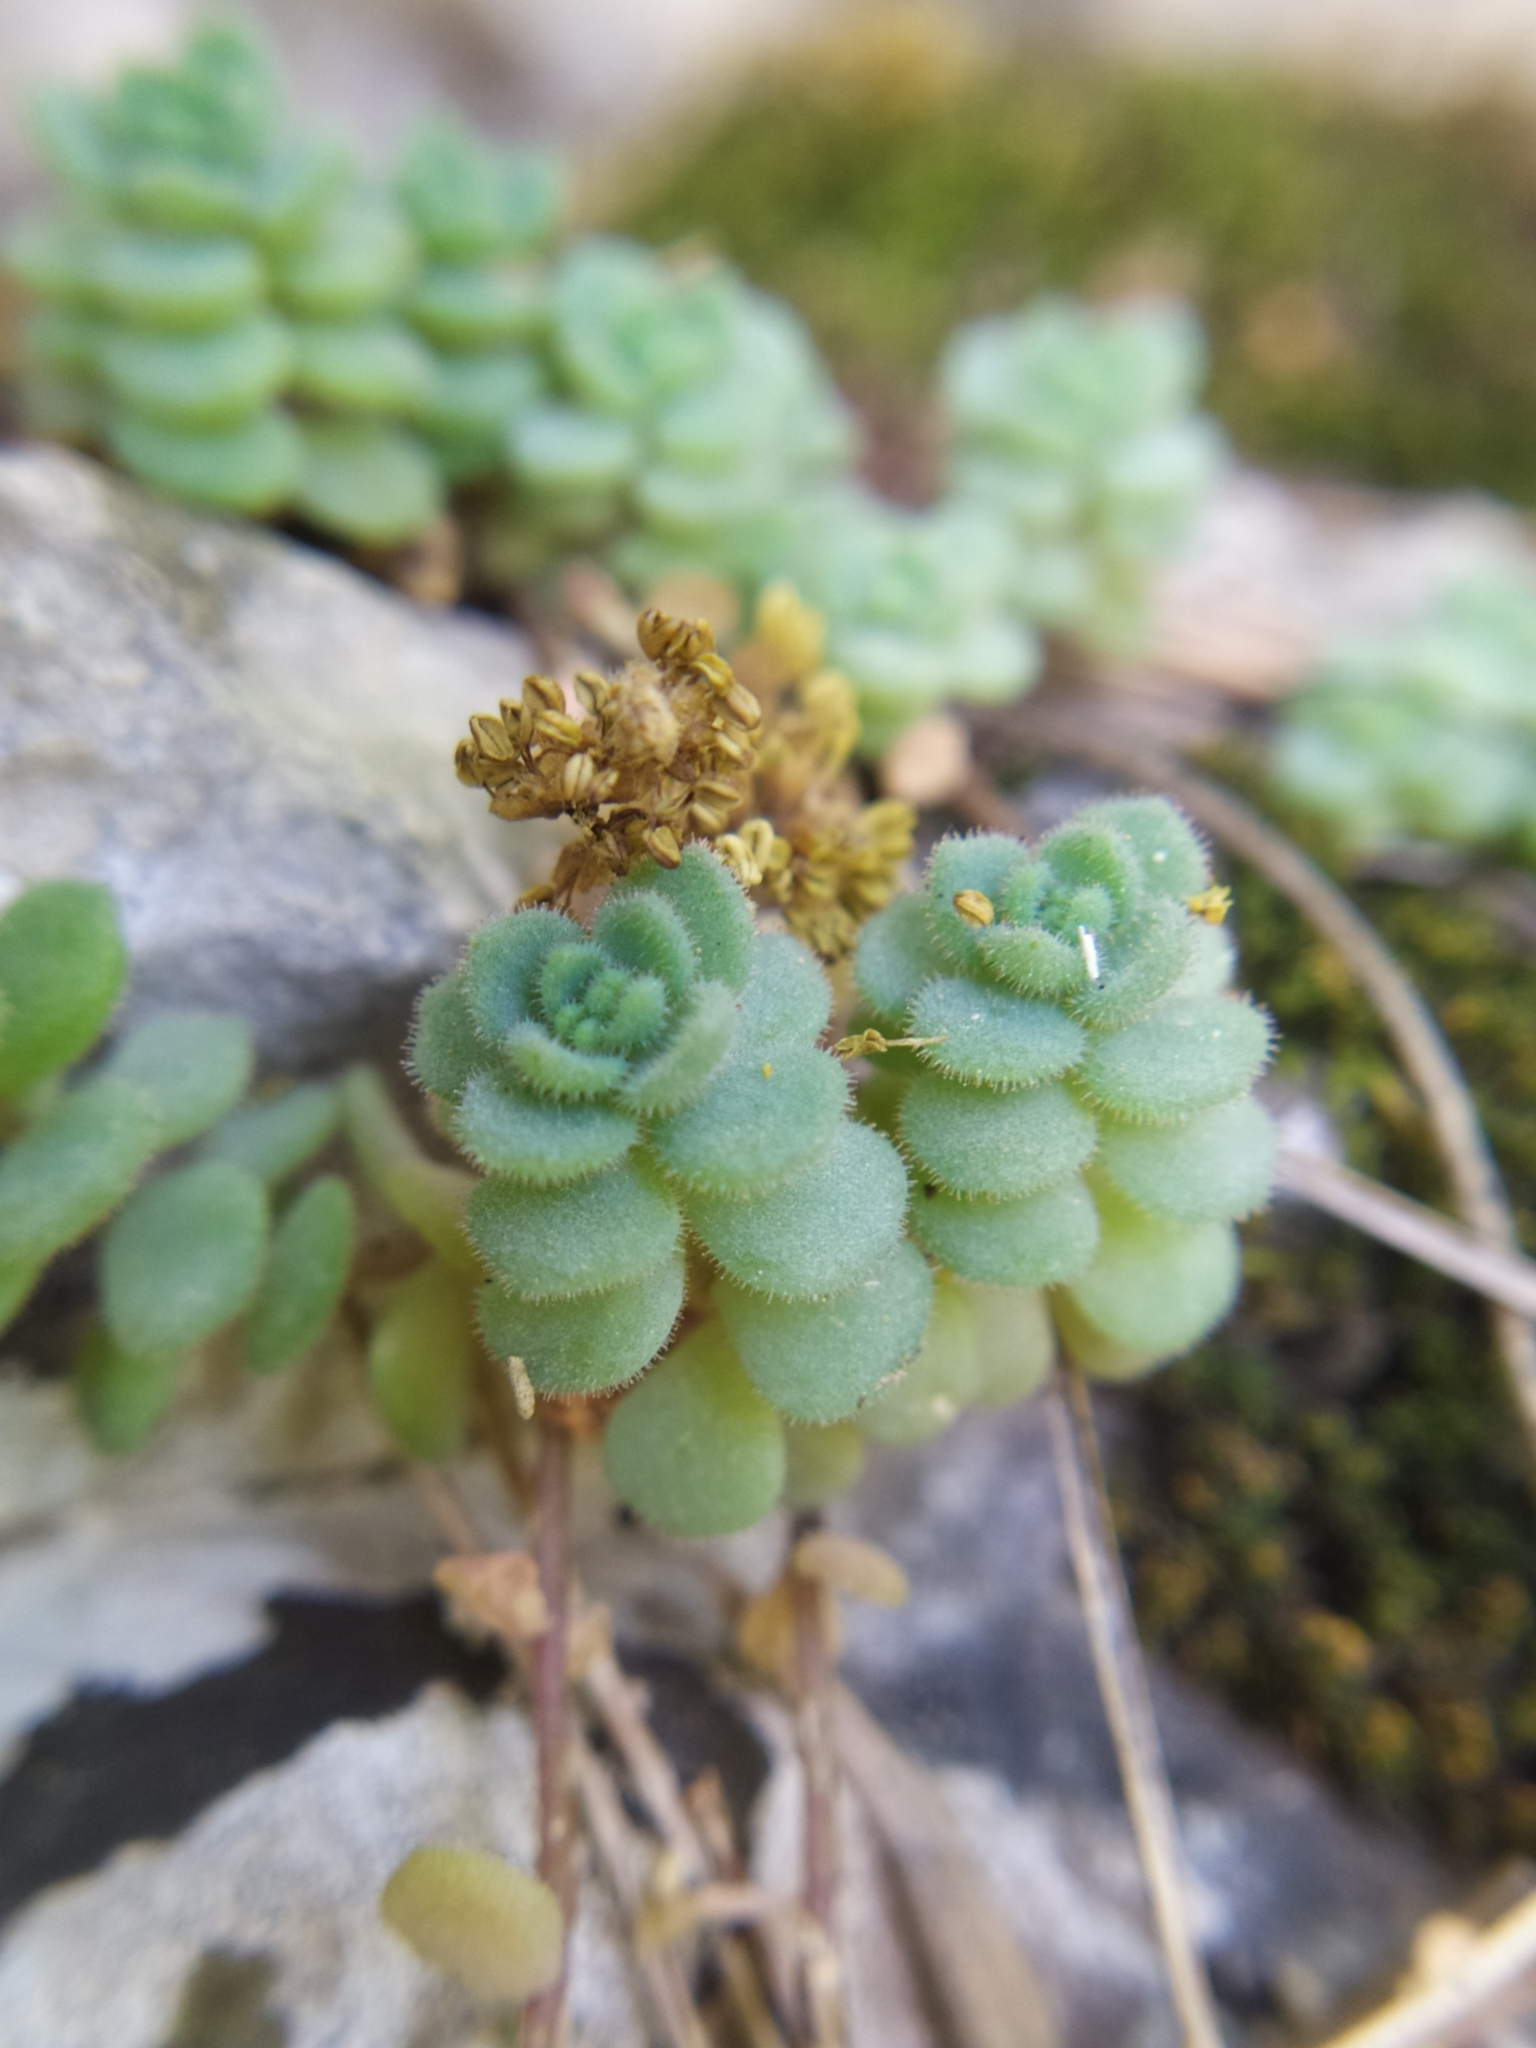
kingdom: Plantae
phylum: Tracheophyta
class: Magnoliopsida
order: Saxifragales
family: Crassulaceae
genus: Sedum
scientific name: Sedum dasyphyllum
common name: Thick-leaf stonecrop
